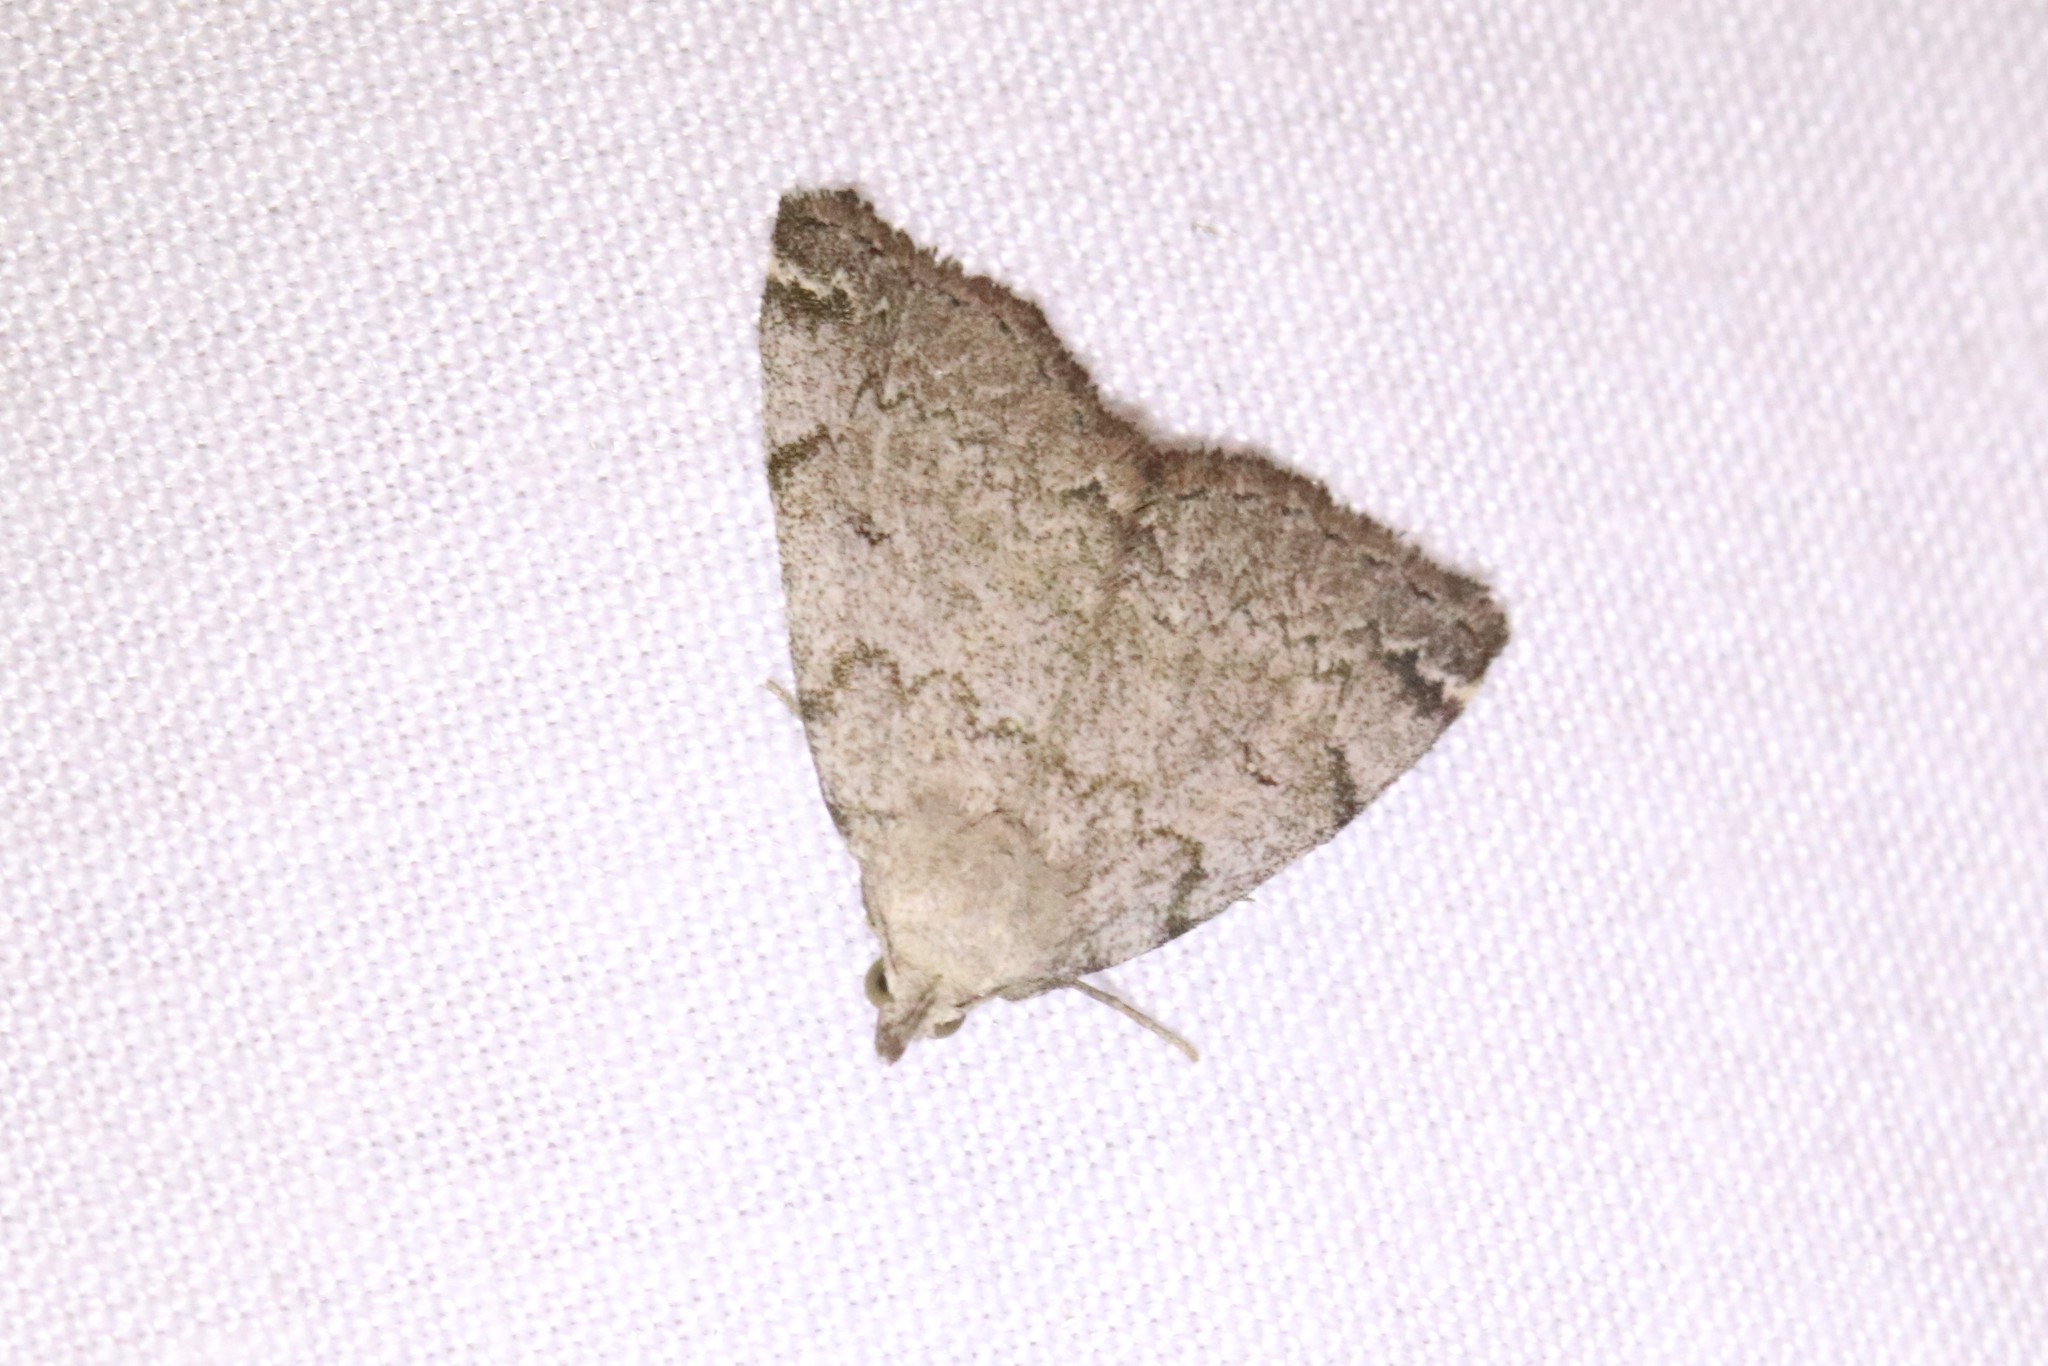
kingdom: Animalia
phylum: Arthropoda
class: Insecta
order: Lepidoptera
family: Erebidae
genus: Zanclognatha
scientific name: Zanclognatha theralis
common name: Flagged fan-foot
